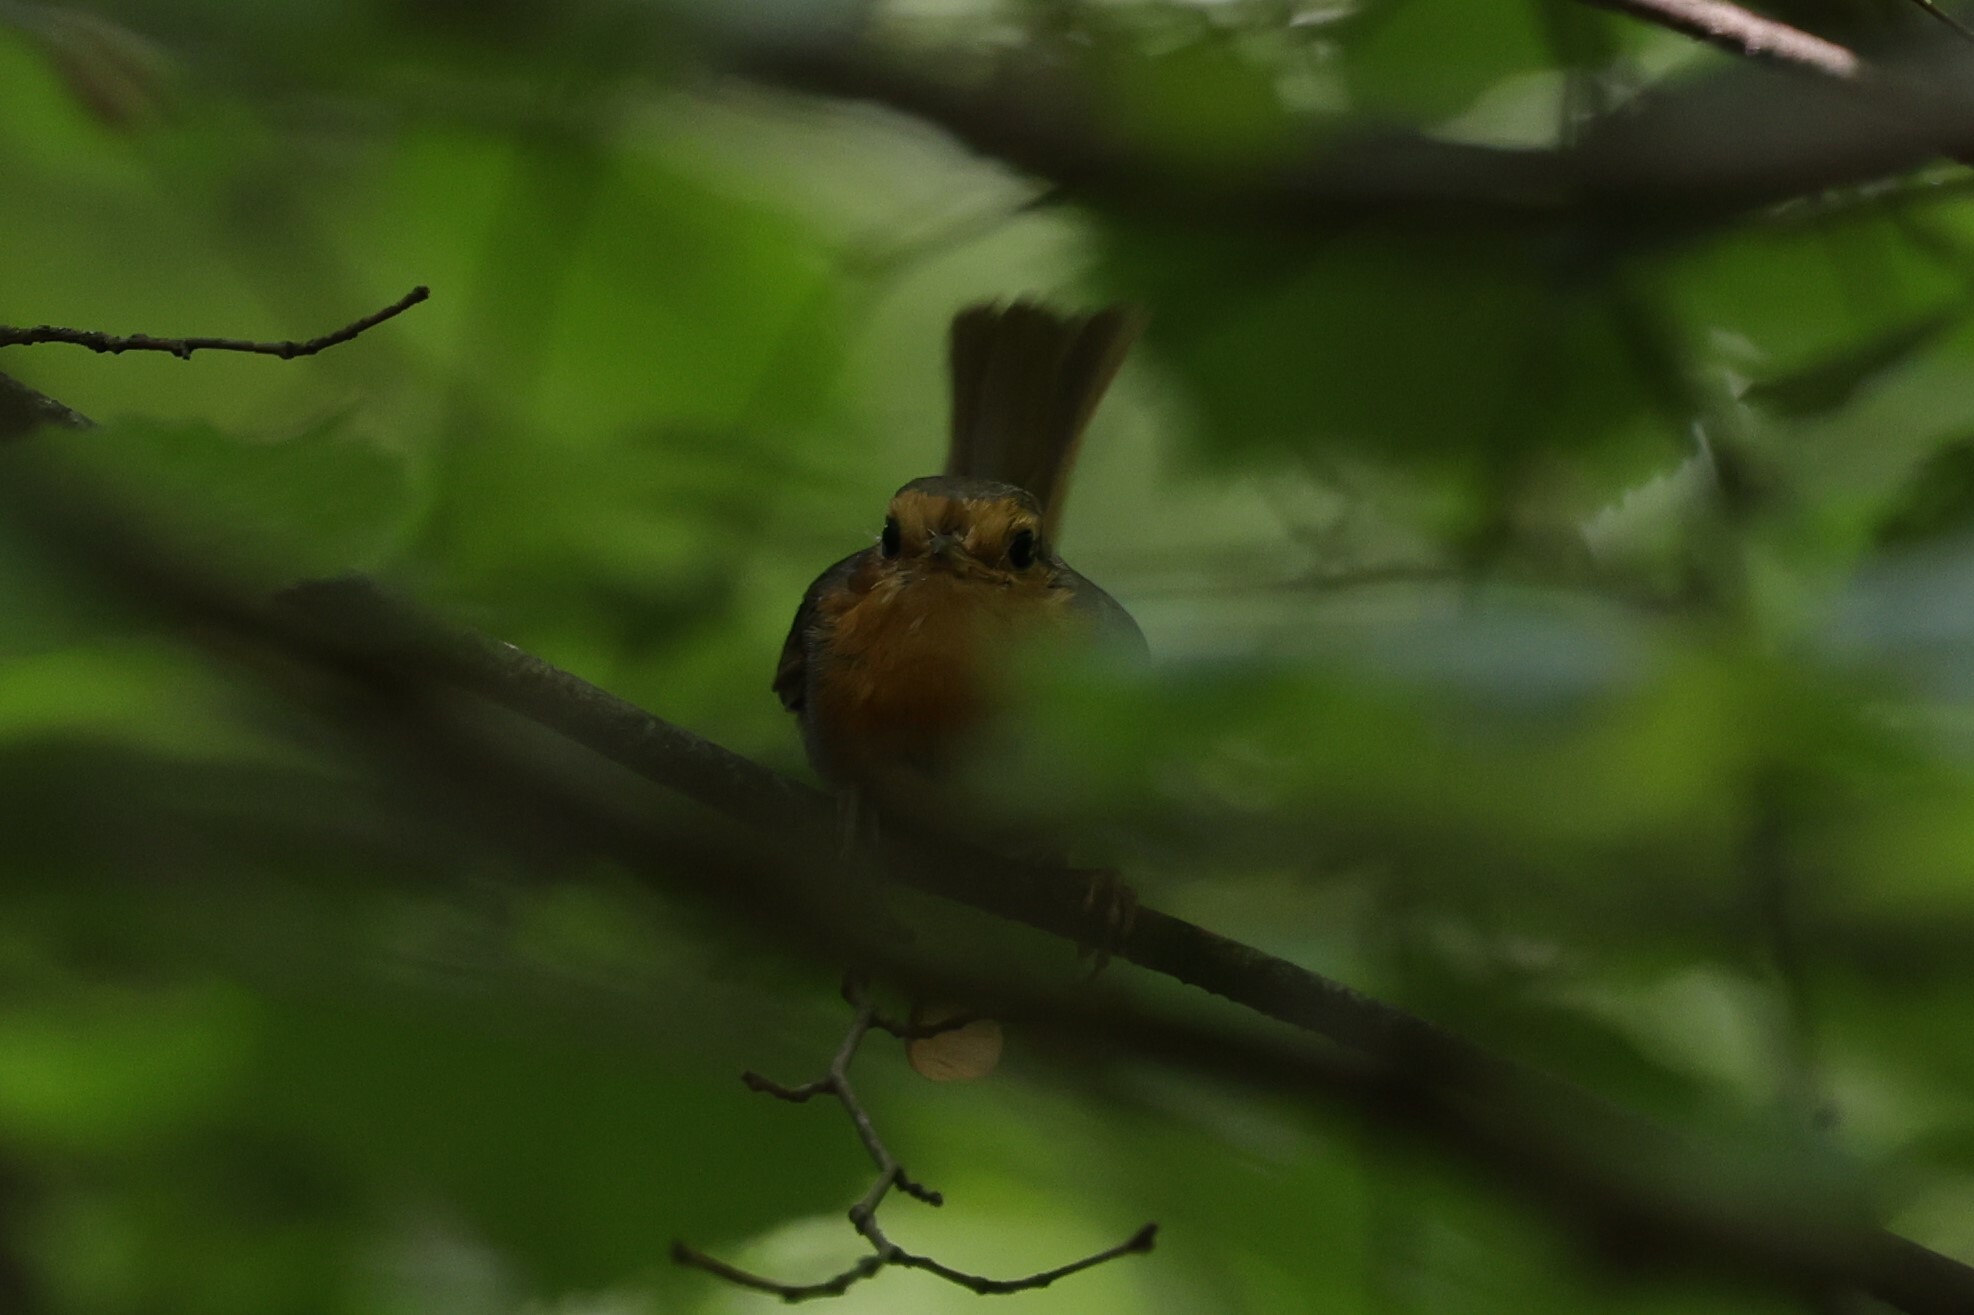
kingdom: Animalia
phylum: Chordata
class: Aves
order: Passeriformes
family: Muscicapidae
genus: Erithacus
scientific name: Erithacus rubecula
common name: European robin
